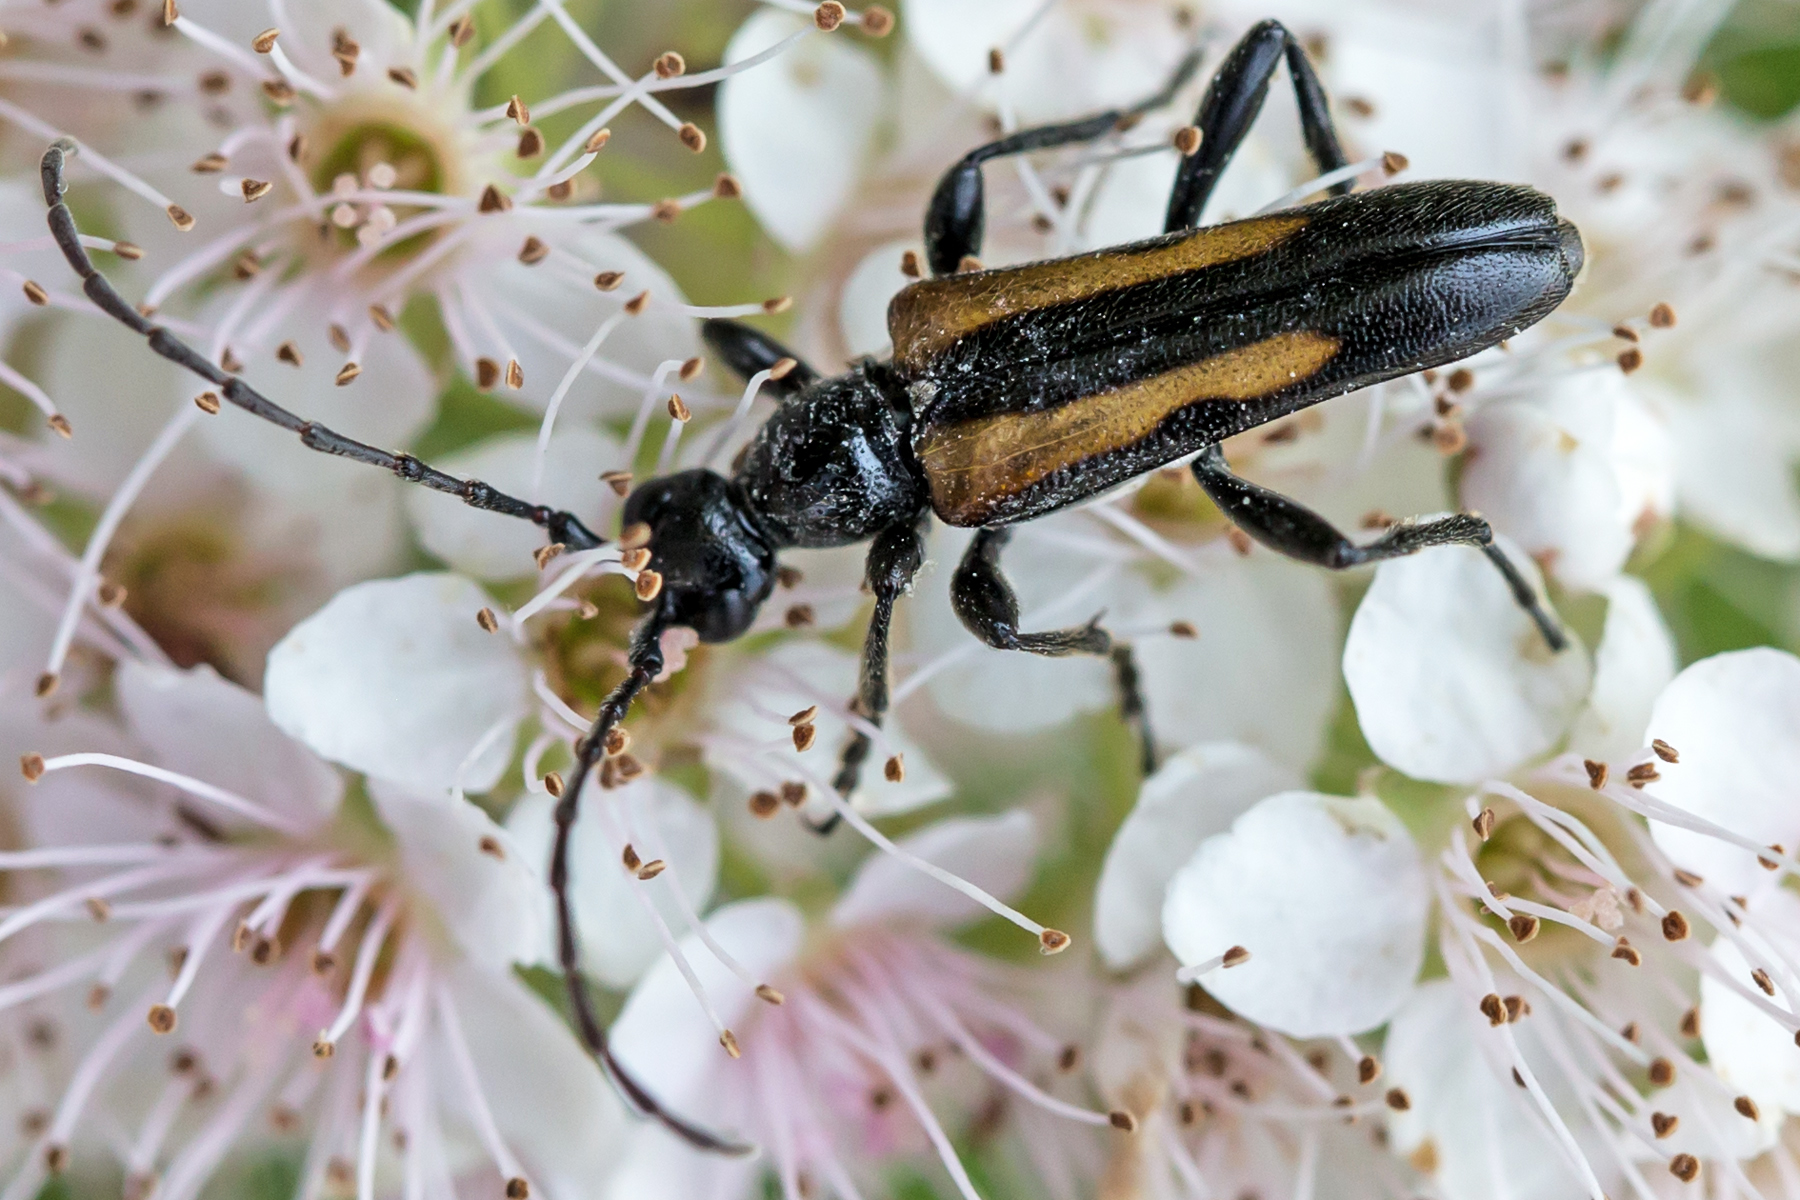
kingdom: Animalia
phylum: Arthropoda
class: Insecta
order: Coleoptera
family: Cerambycidae
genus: Strangalepta
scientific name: Strangalepta abbreviata
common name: Strangalepta flower longhorn beetle
